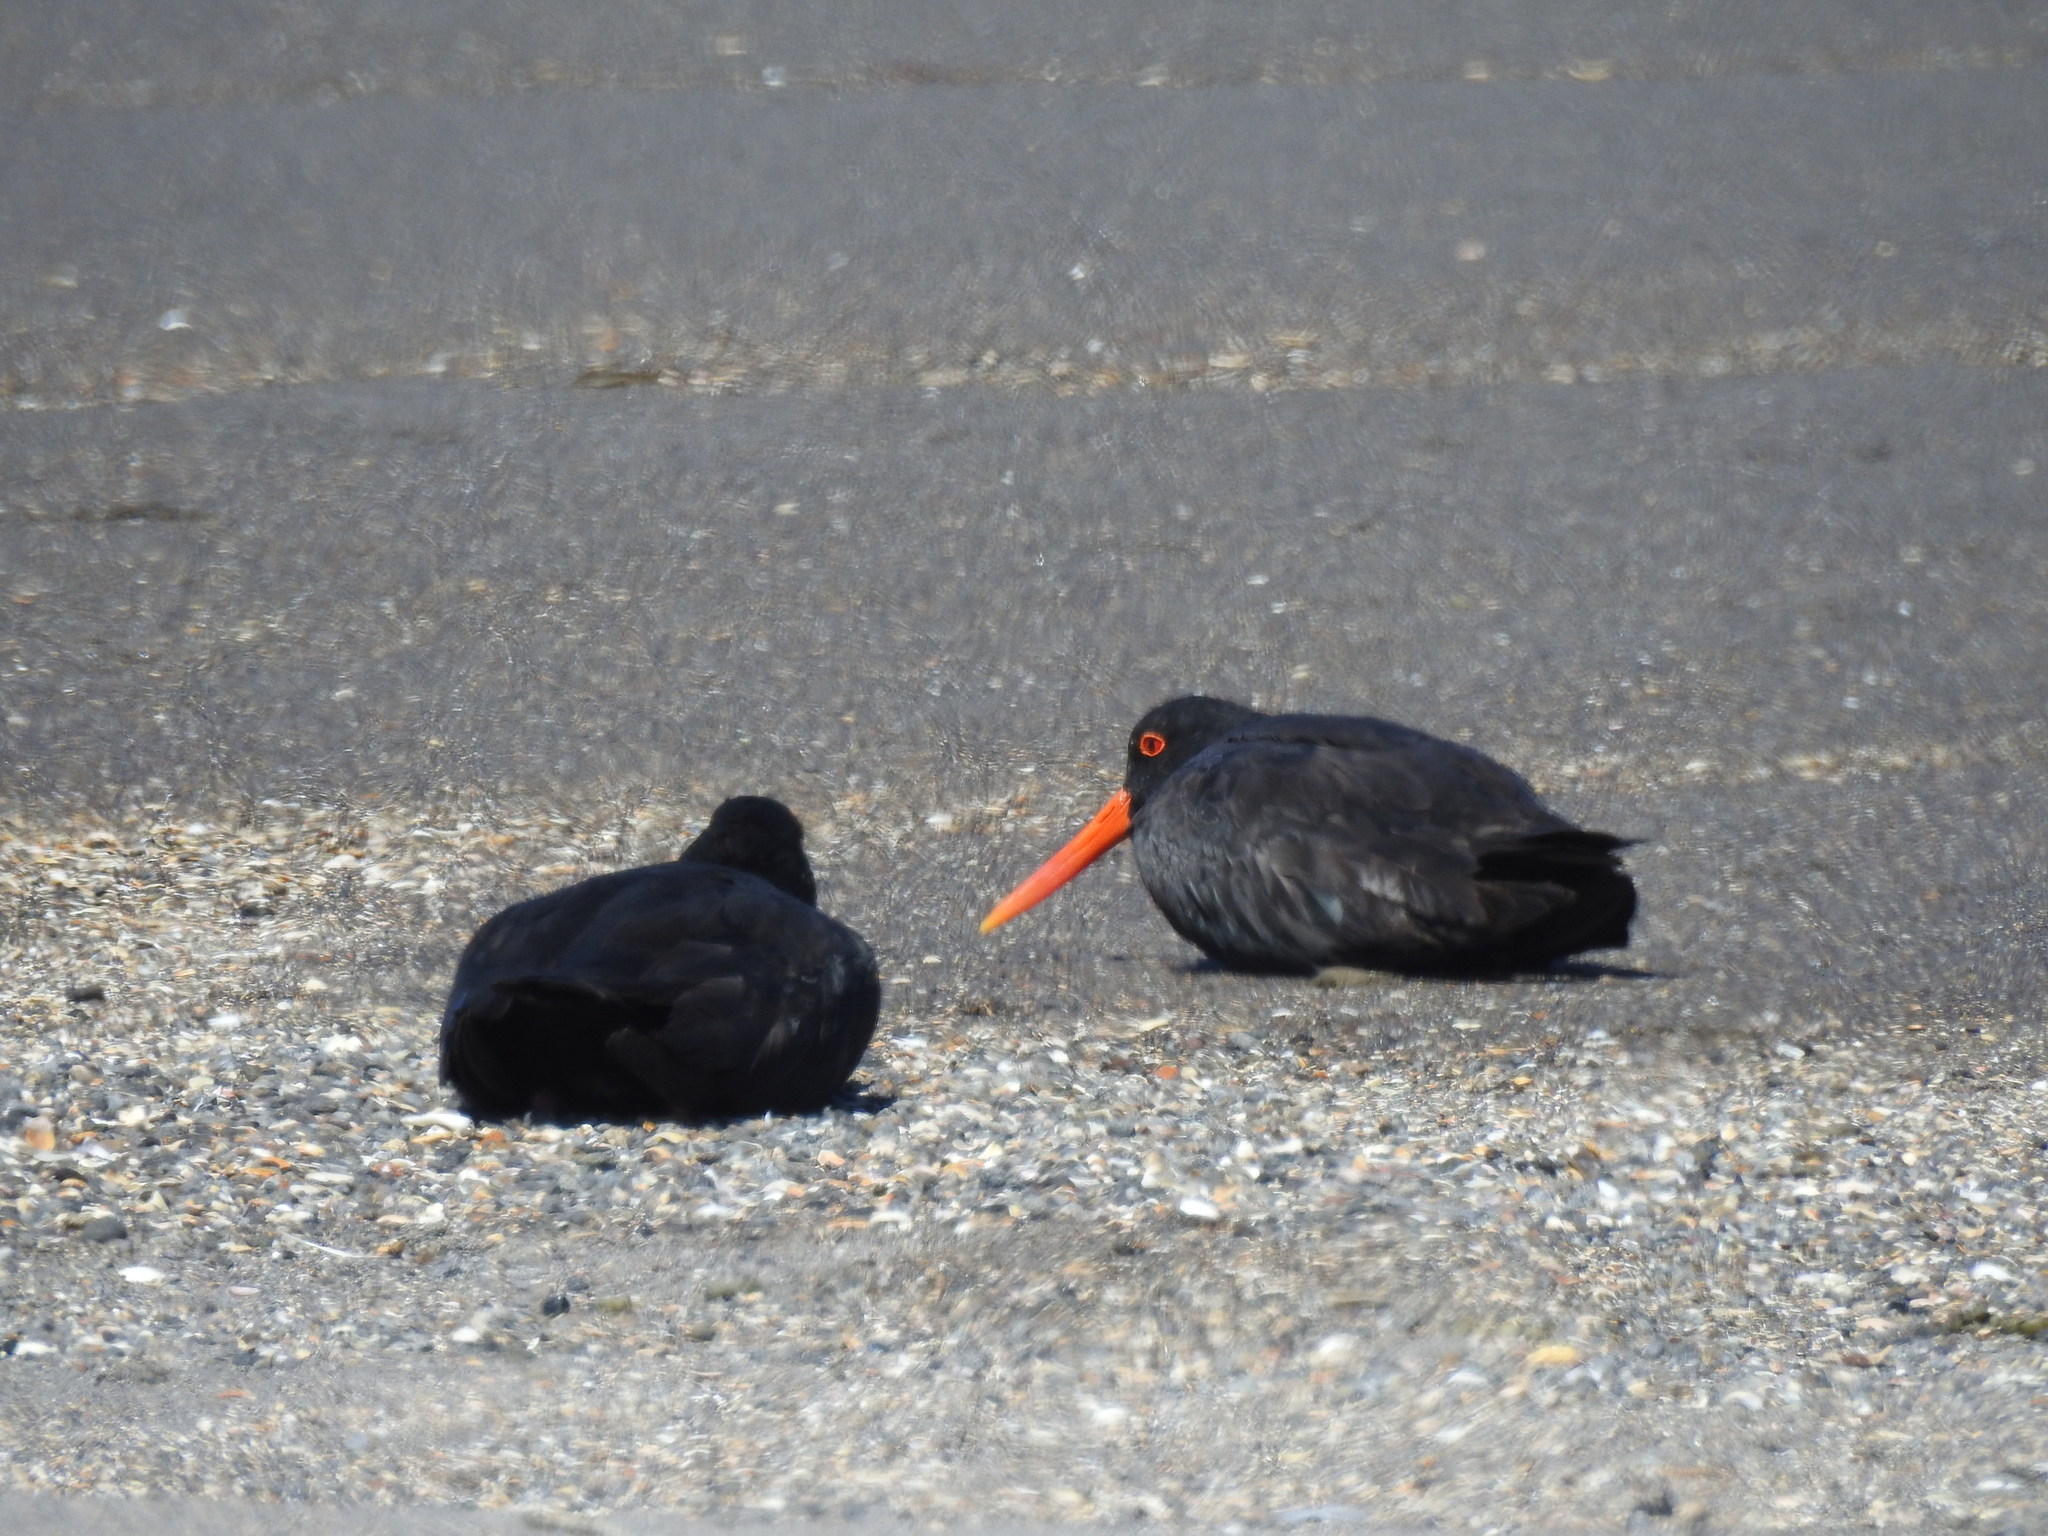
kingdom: Animalia
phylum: Chordata
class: Aves
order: Charadriiformes
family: Haematopodidae
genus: Haematopus
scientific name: Haematopus unicolor
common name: Variable oystercatcher
